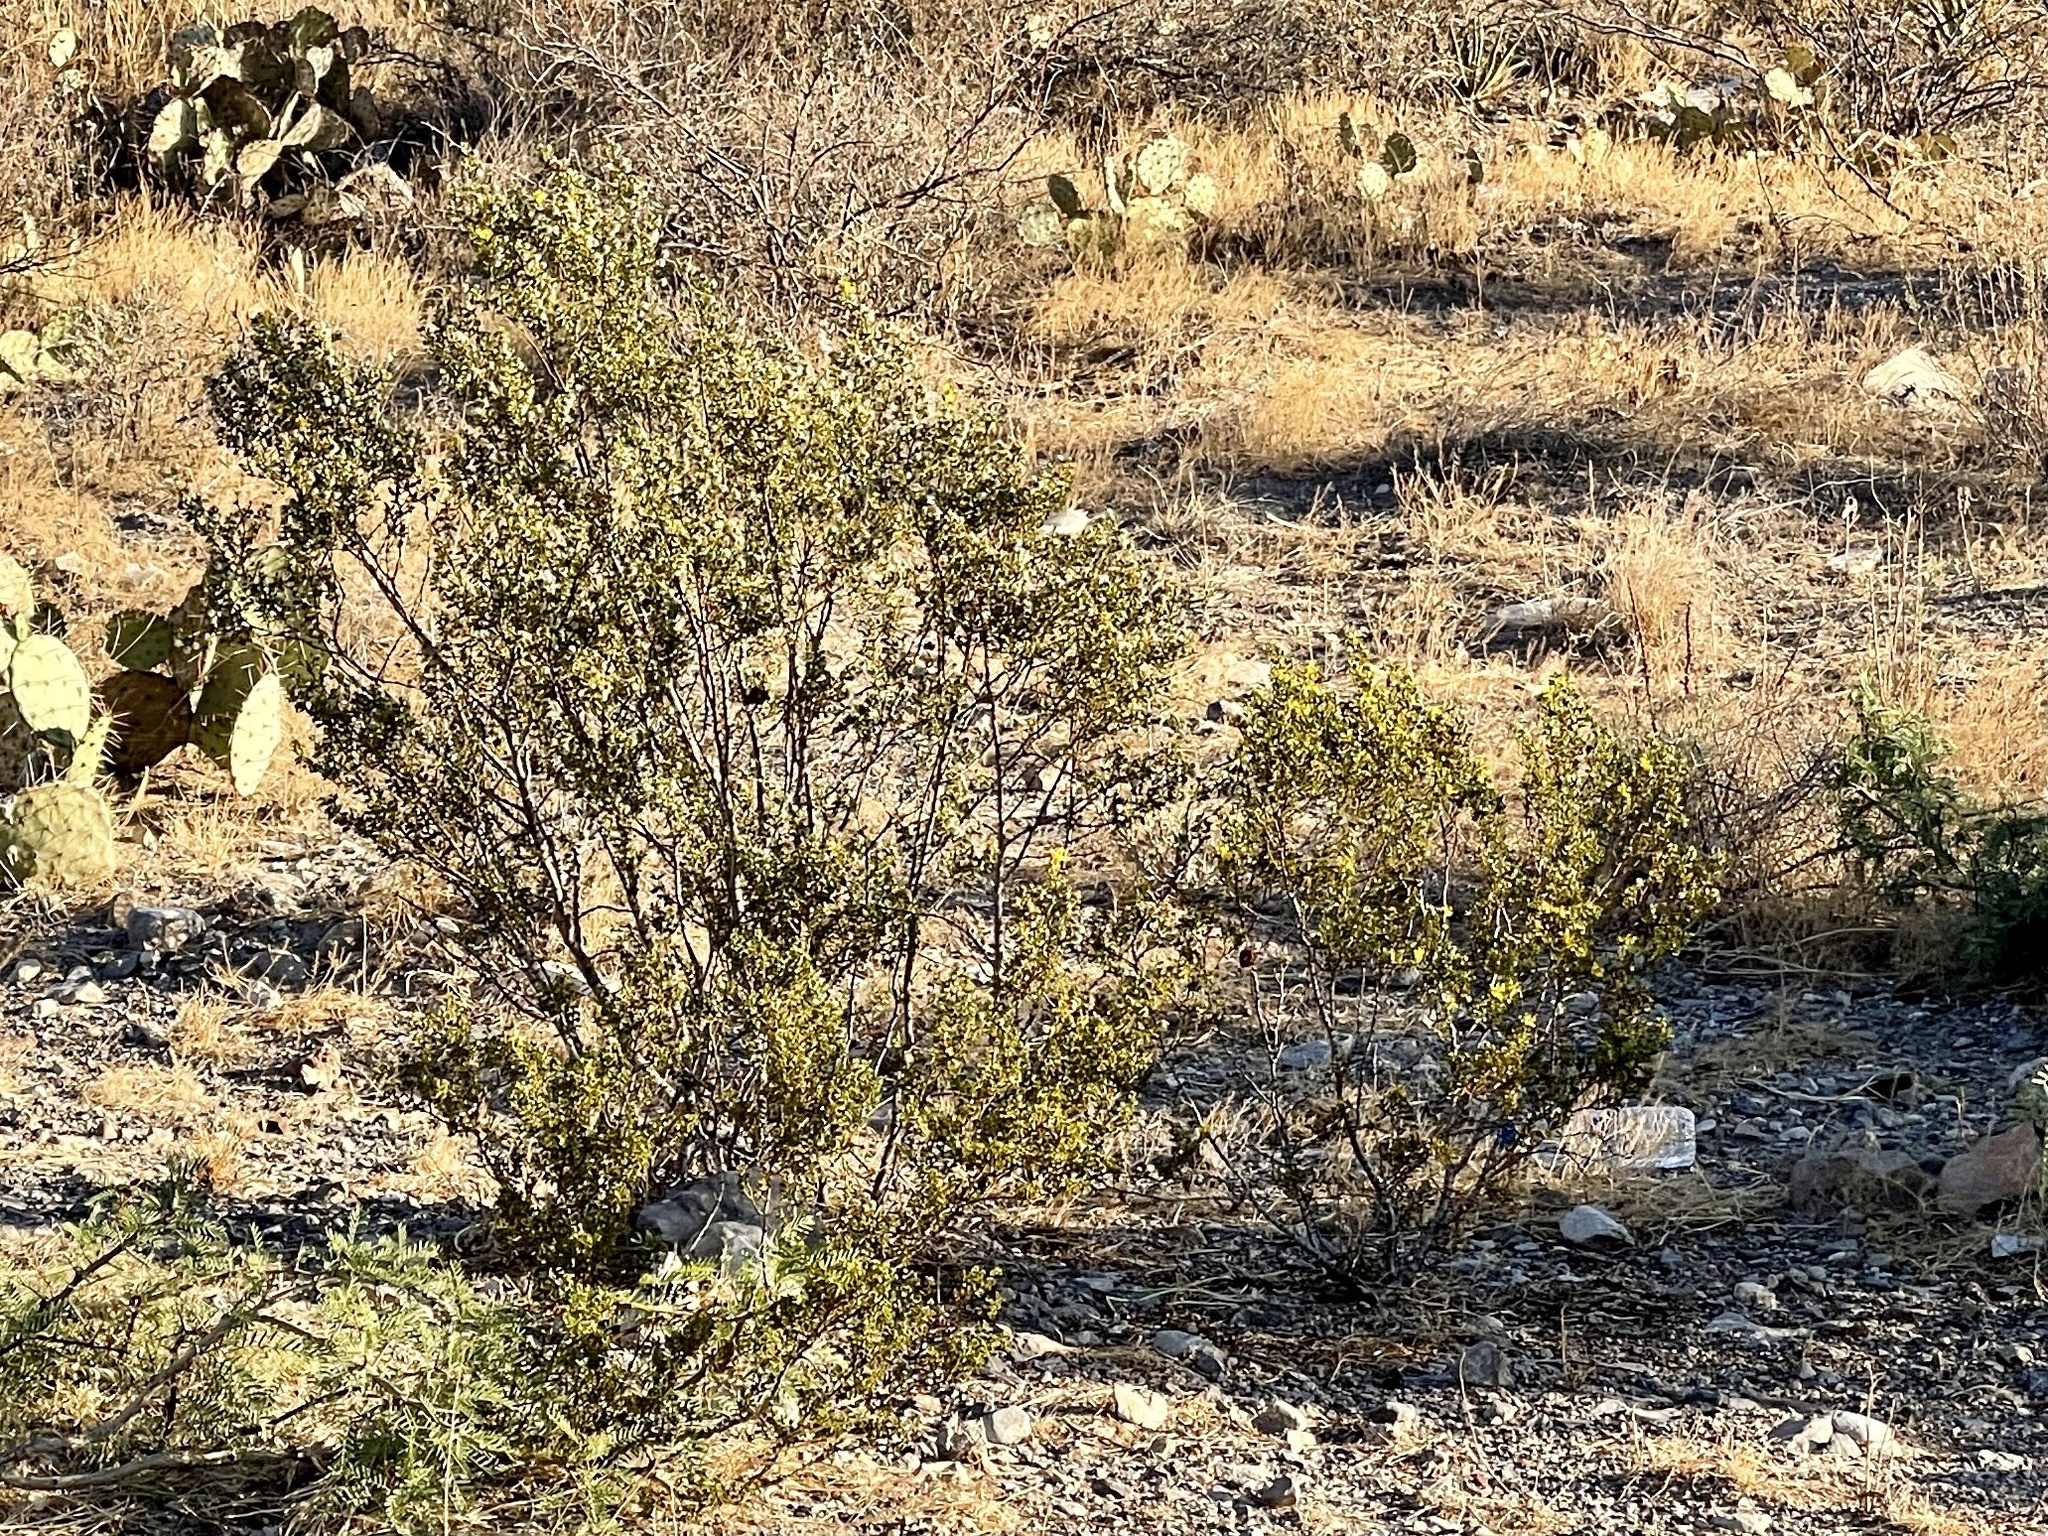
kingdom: Plantae
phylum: Tracheophyta
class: Magnoliopsida
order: Zygophyllales
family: Zygophyllaceae
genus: Larrea
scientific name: Larrea tridentata
